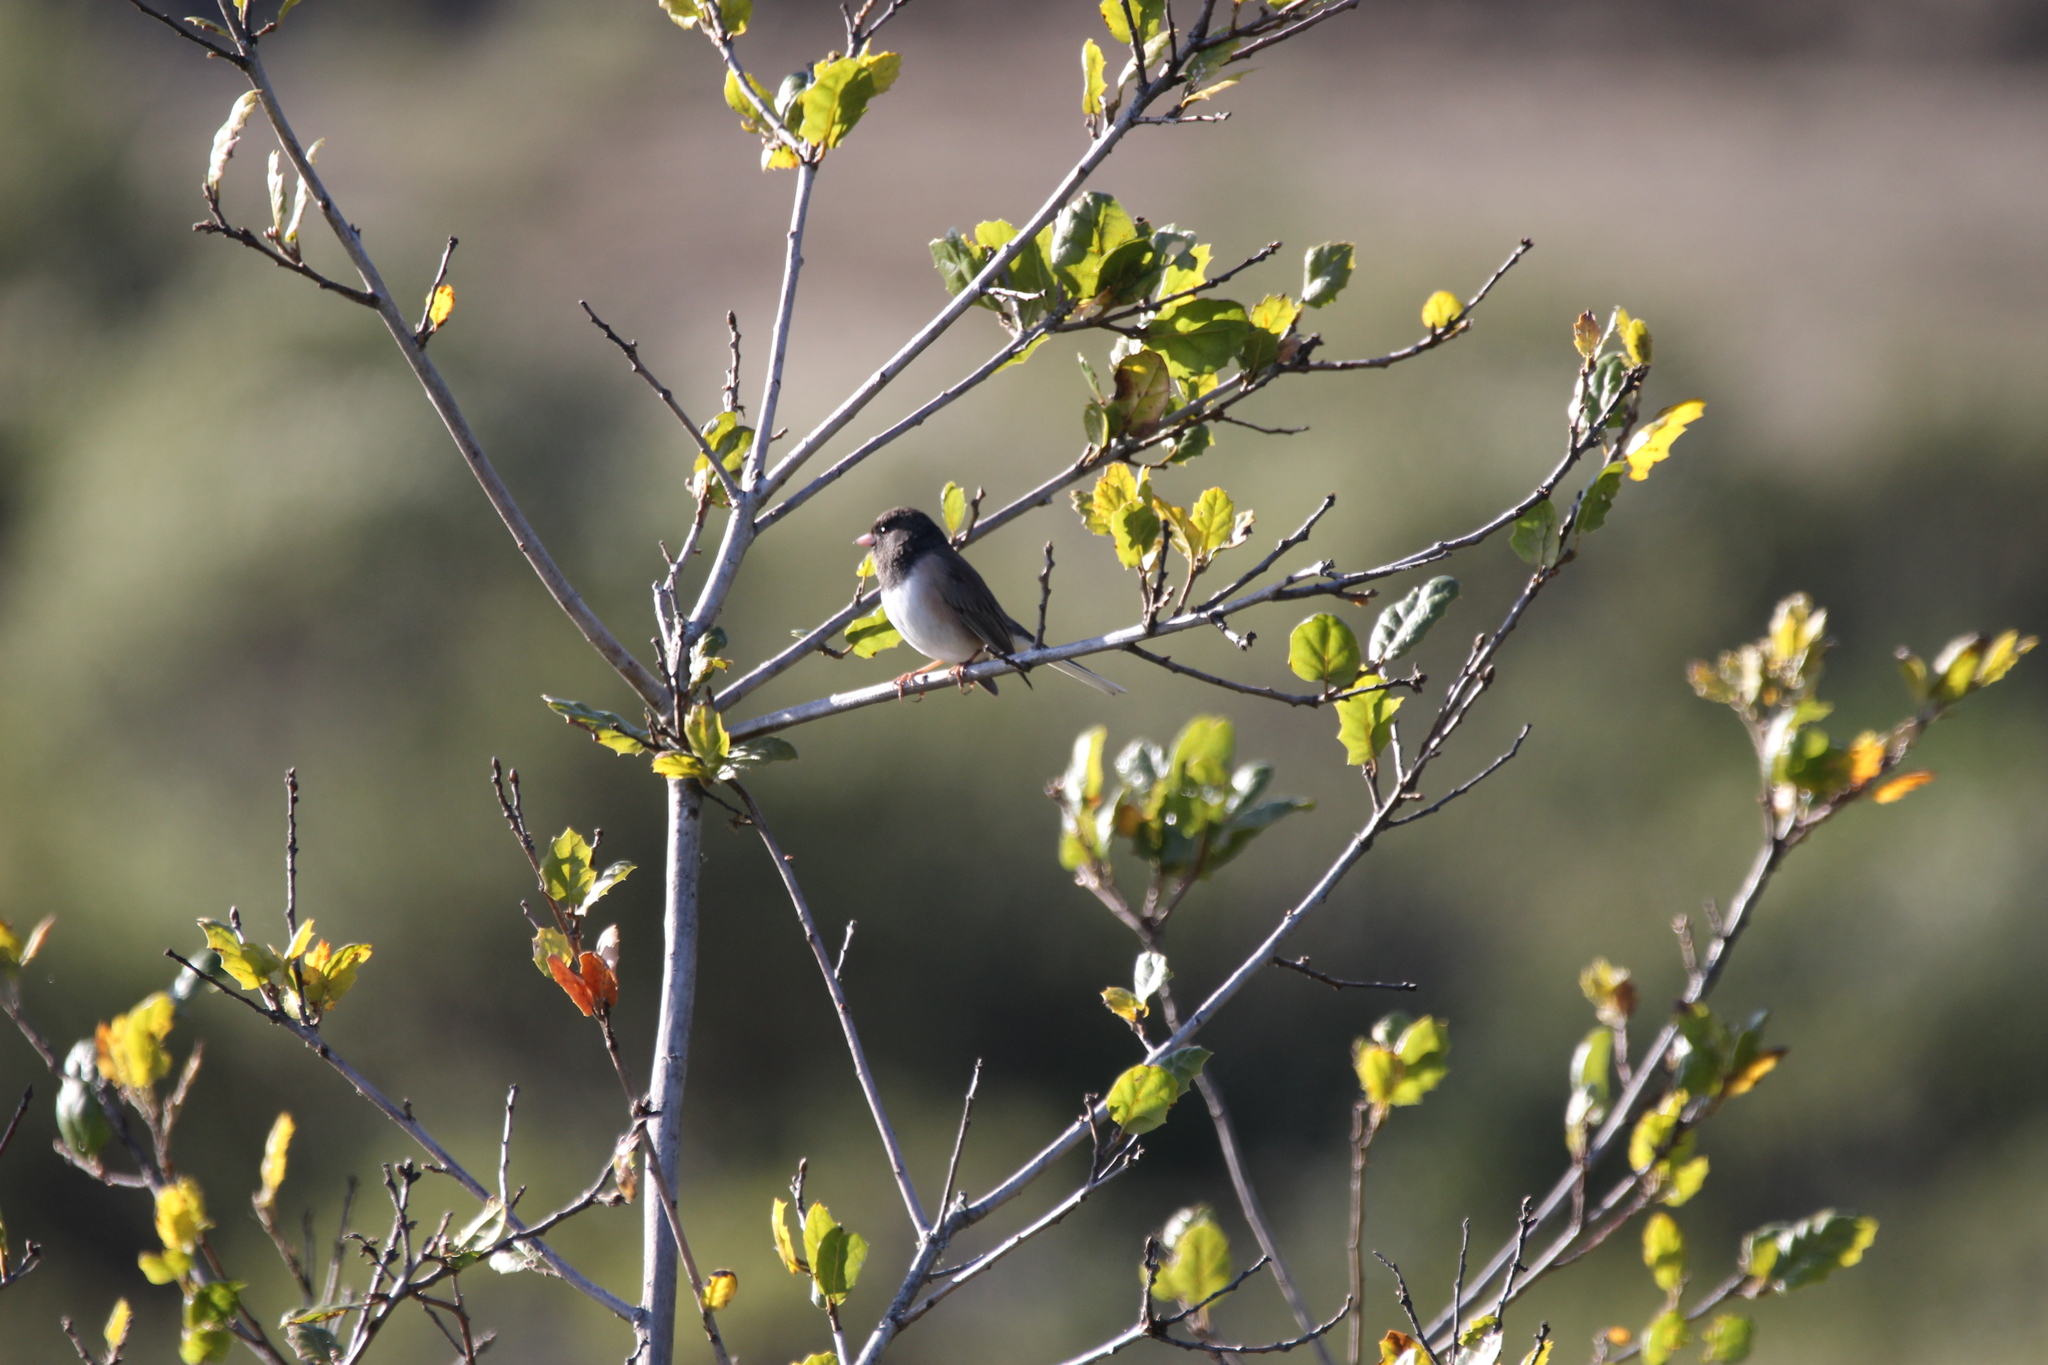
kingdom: Animalia
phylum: Chordata
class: Aves
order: Passeriformes
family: Passerellidae
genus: Junco
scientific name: Junco hyemalis
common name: Dark-eyed junco
